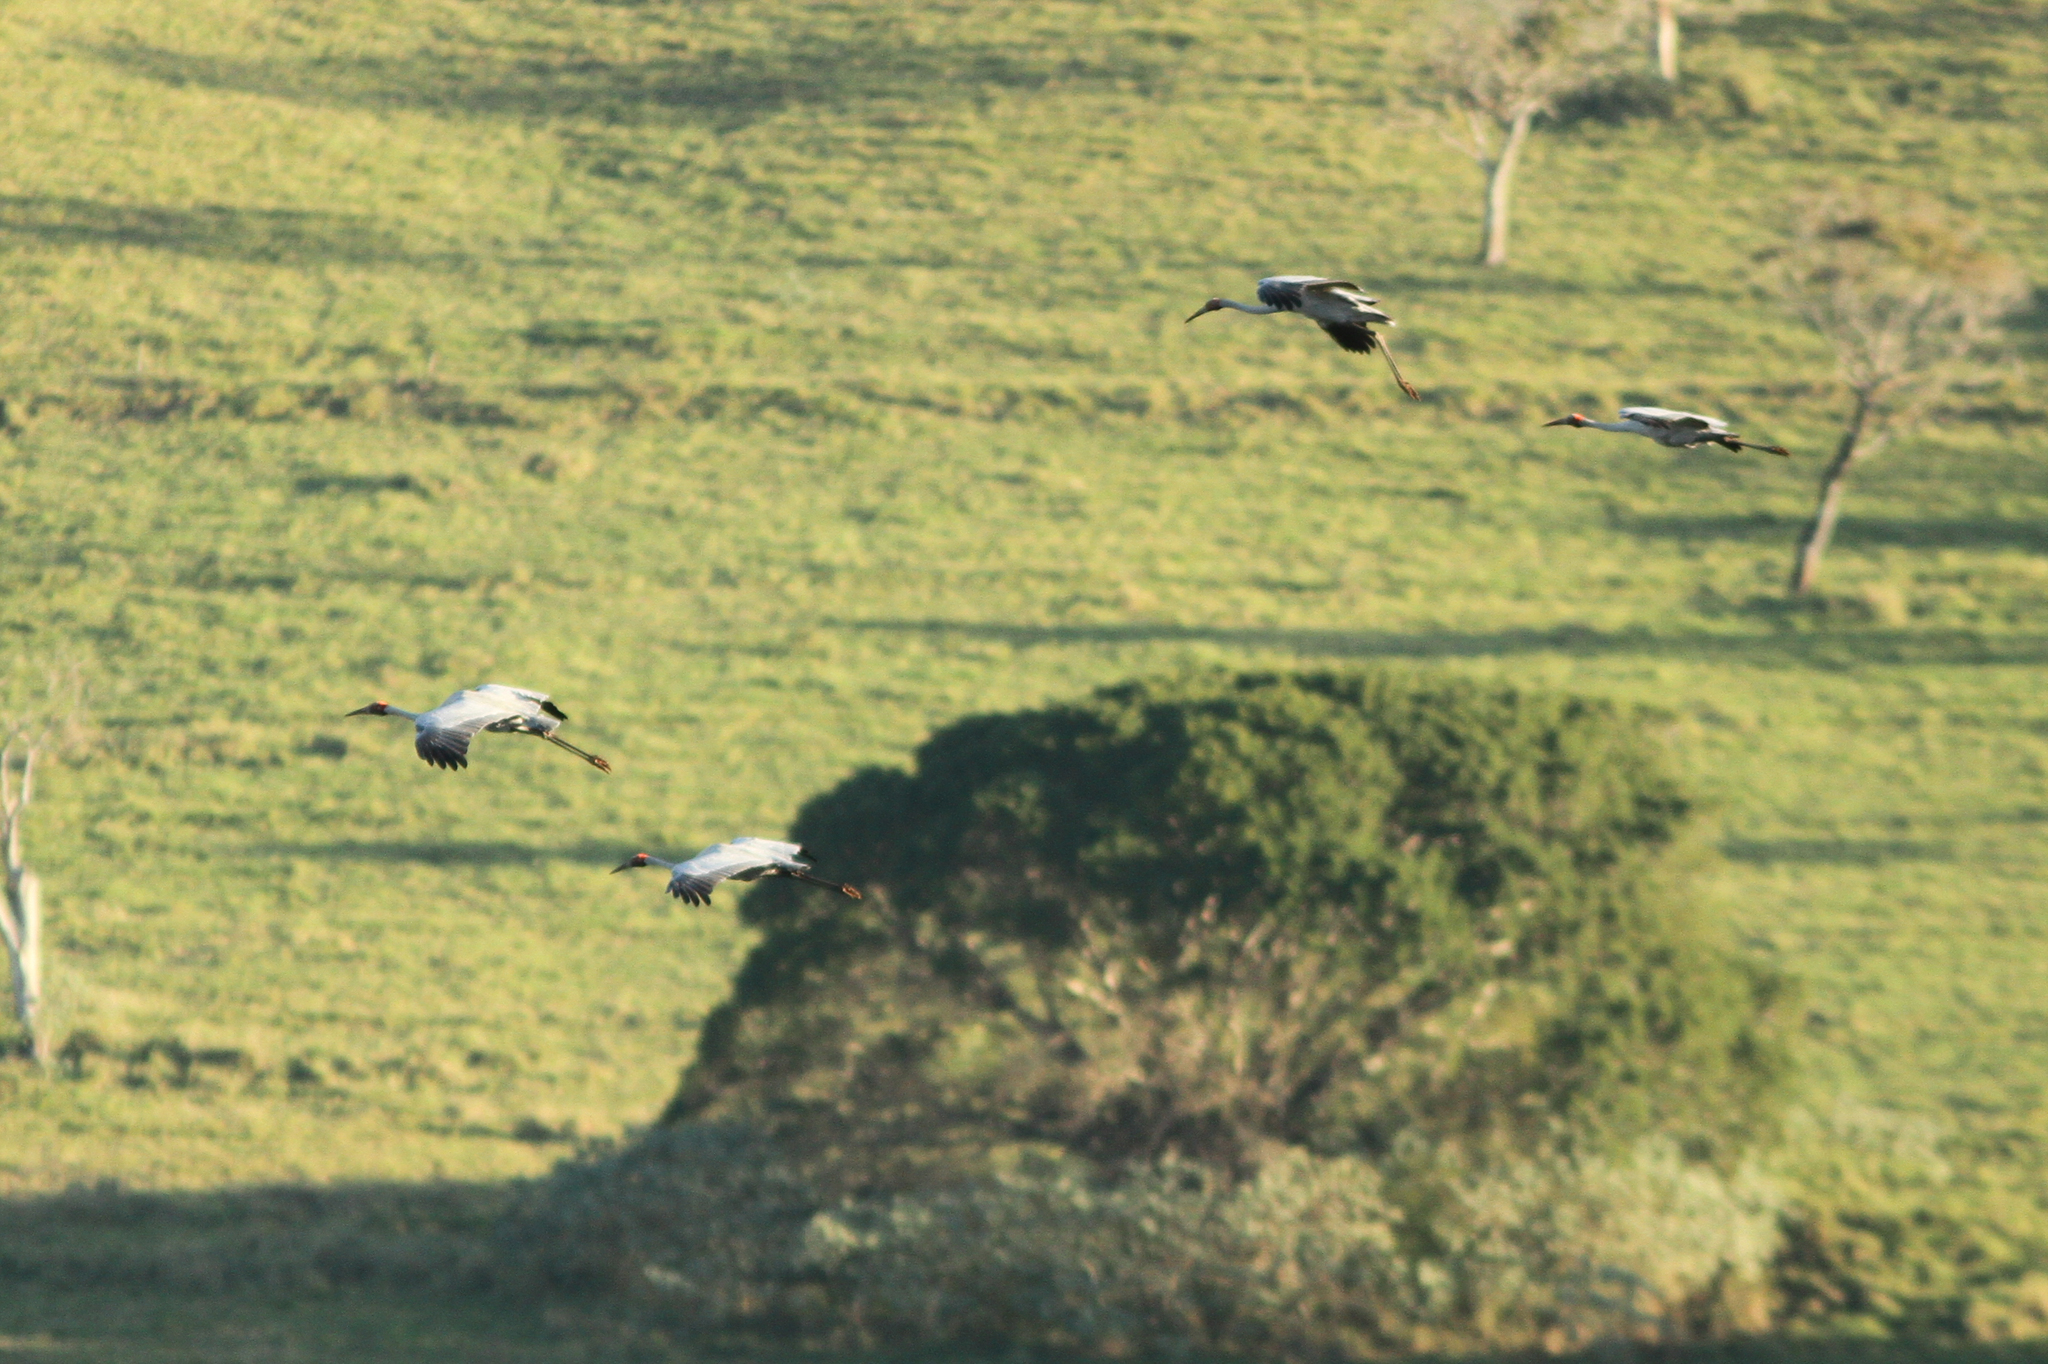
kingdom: Animalia
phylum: Chordata
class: Aves
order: Gruiformes
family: Gruidae
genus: Grus
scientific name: Grus rubicunda
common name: Brolga
